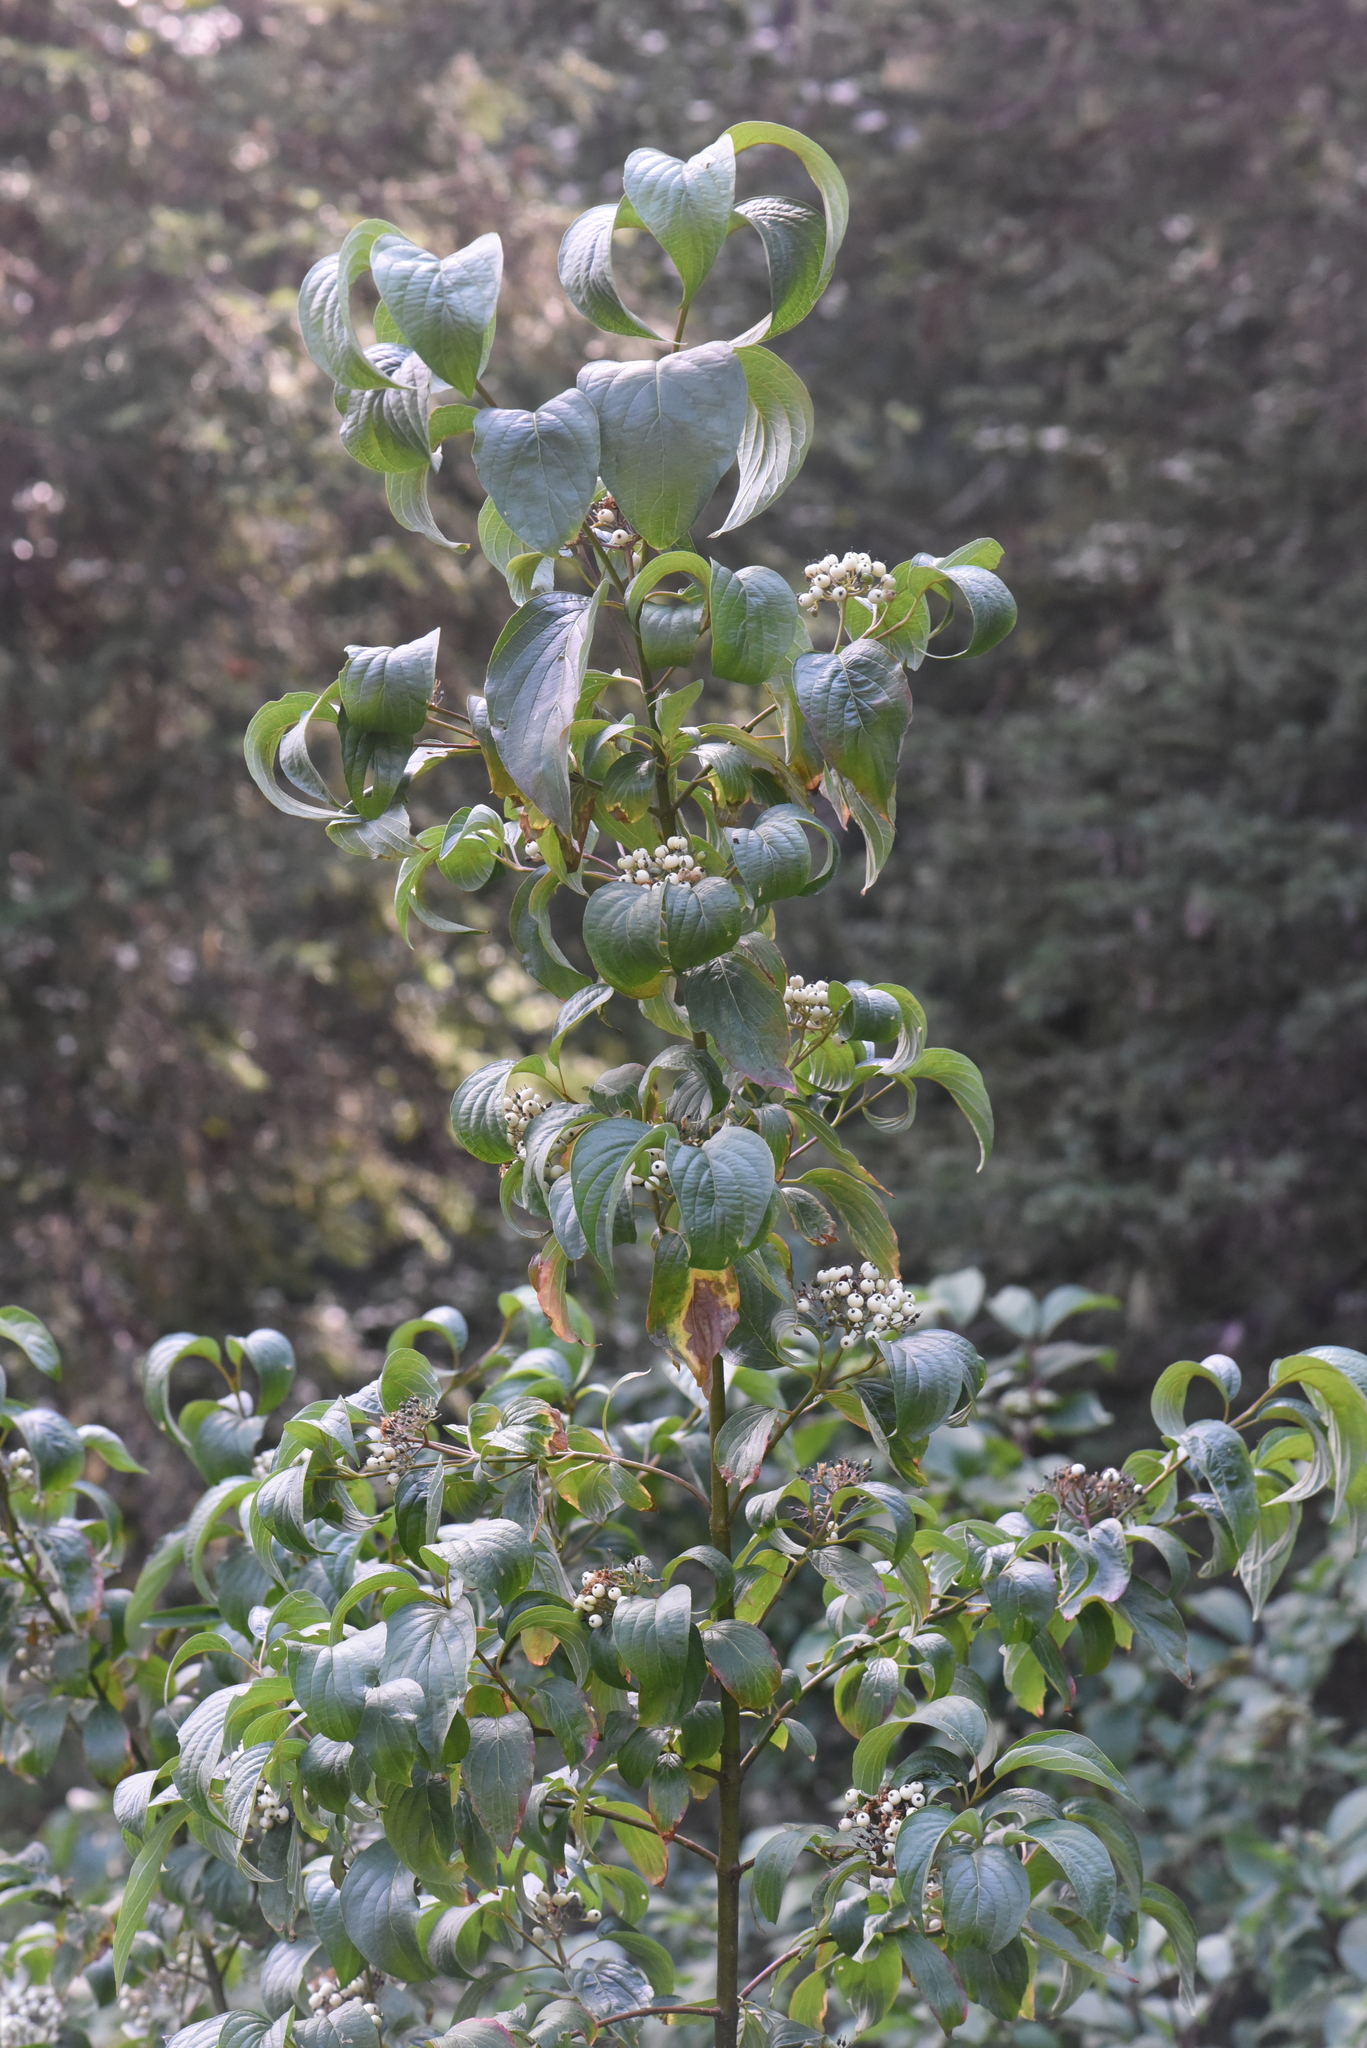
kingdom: Plantae
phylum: Tracheophyta
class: Magnoliopsida
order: Cornales
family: Cornaceae
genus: Cornus
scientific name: Cornus sericea
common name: Red-osier dogwood
